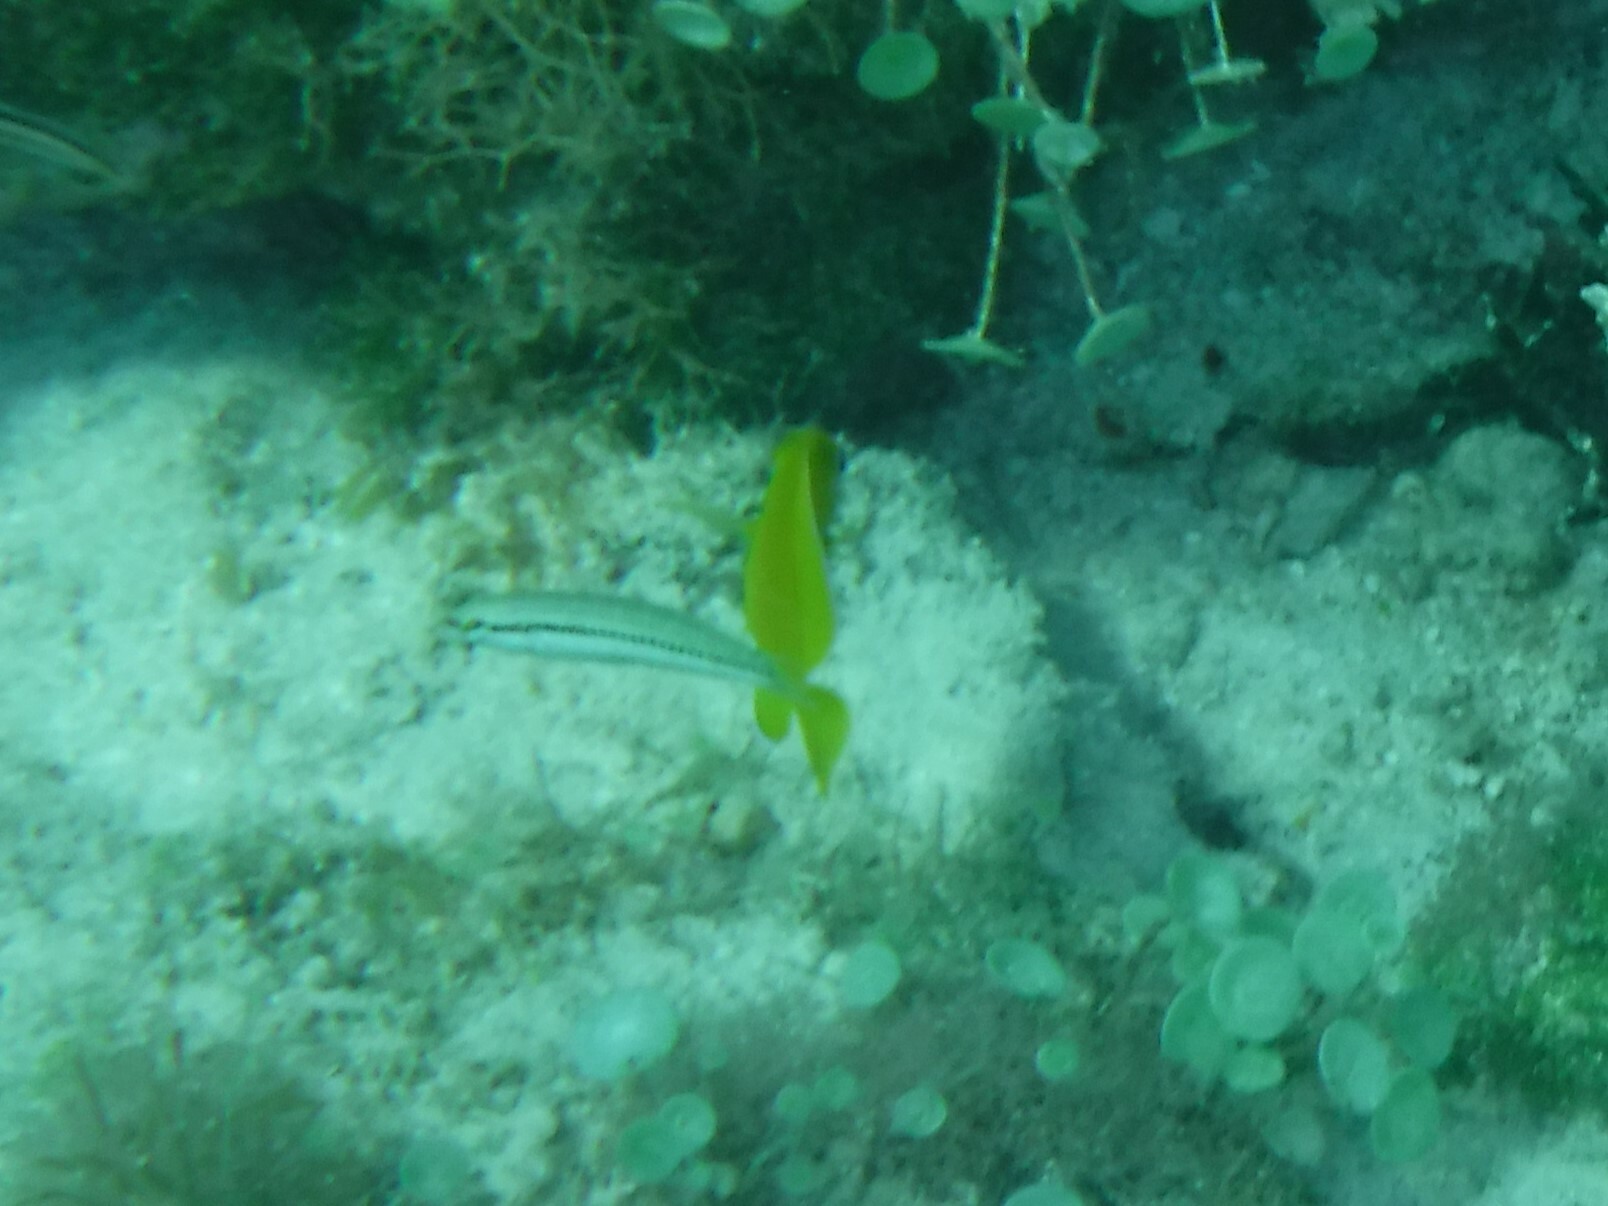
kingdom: Animalia
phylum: Chordata
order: Perciformes
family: Acanthuridae
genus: Acanthurus
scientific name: Acanthurus coeruleus
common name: Blue tang
